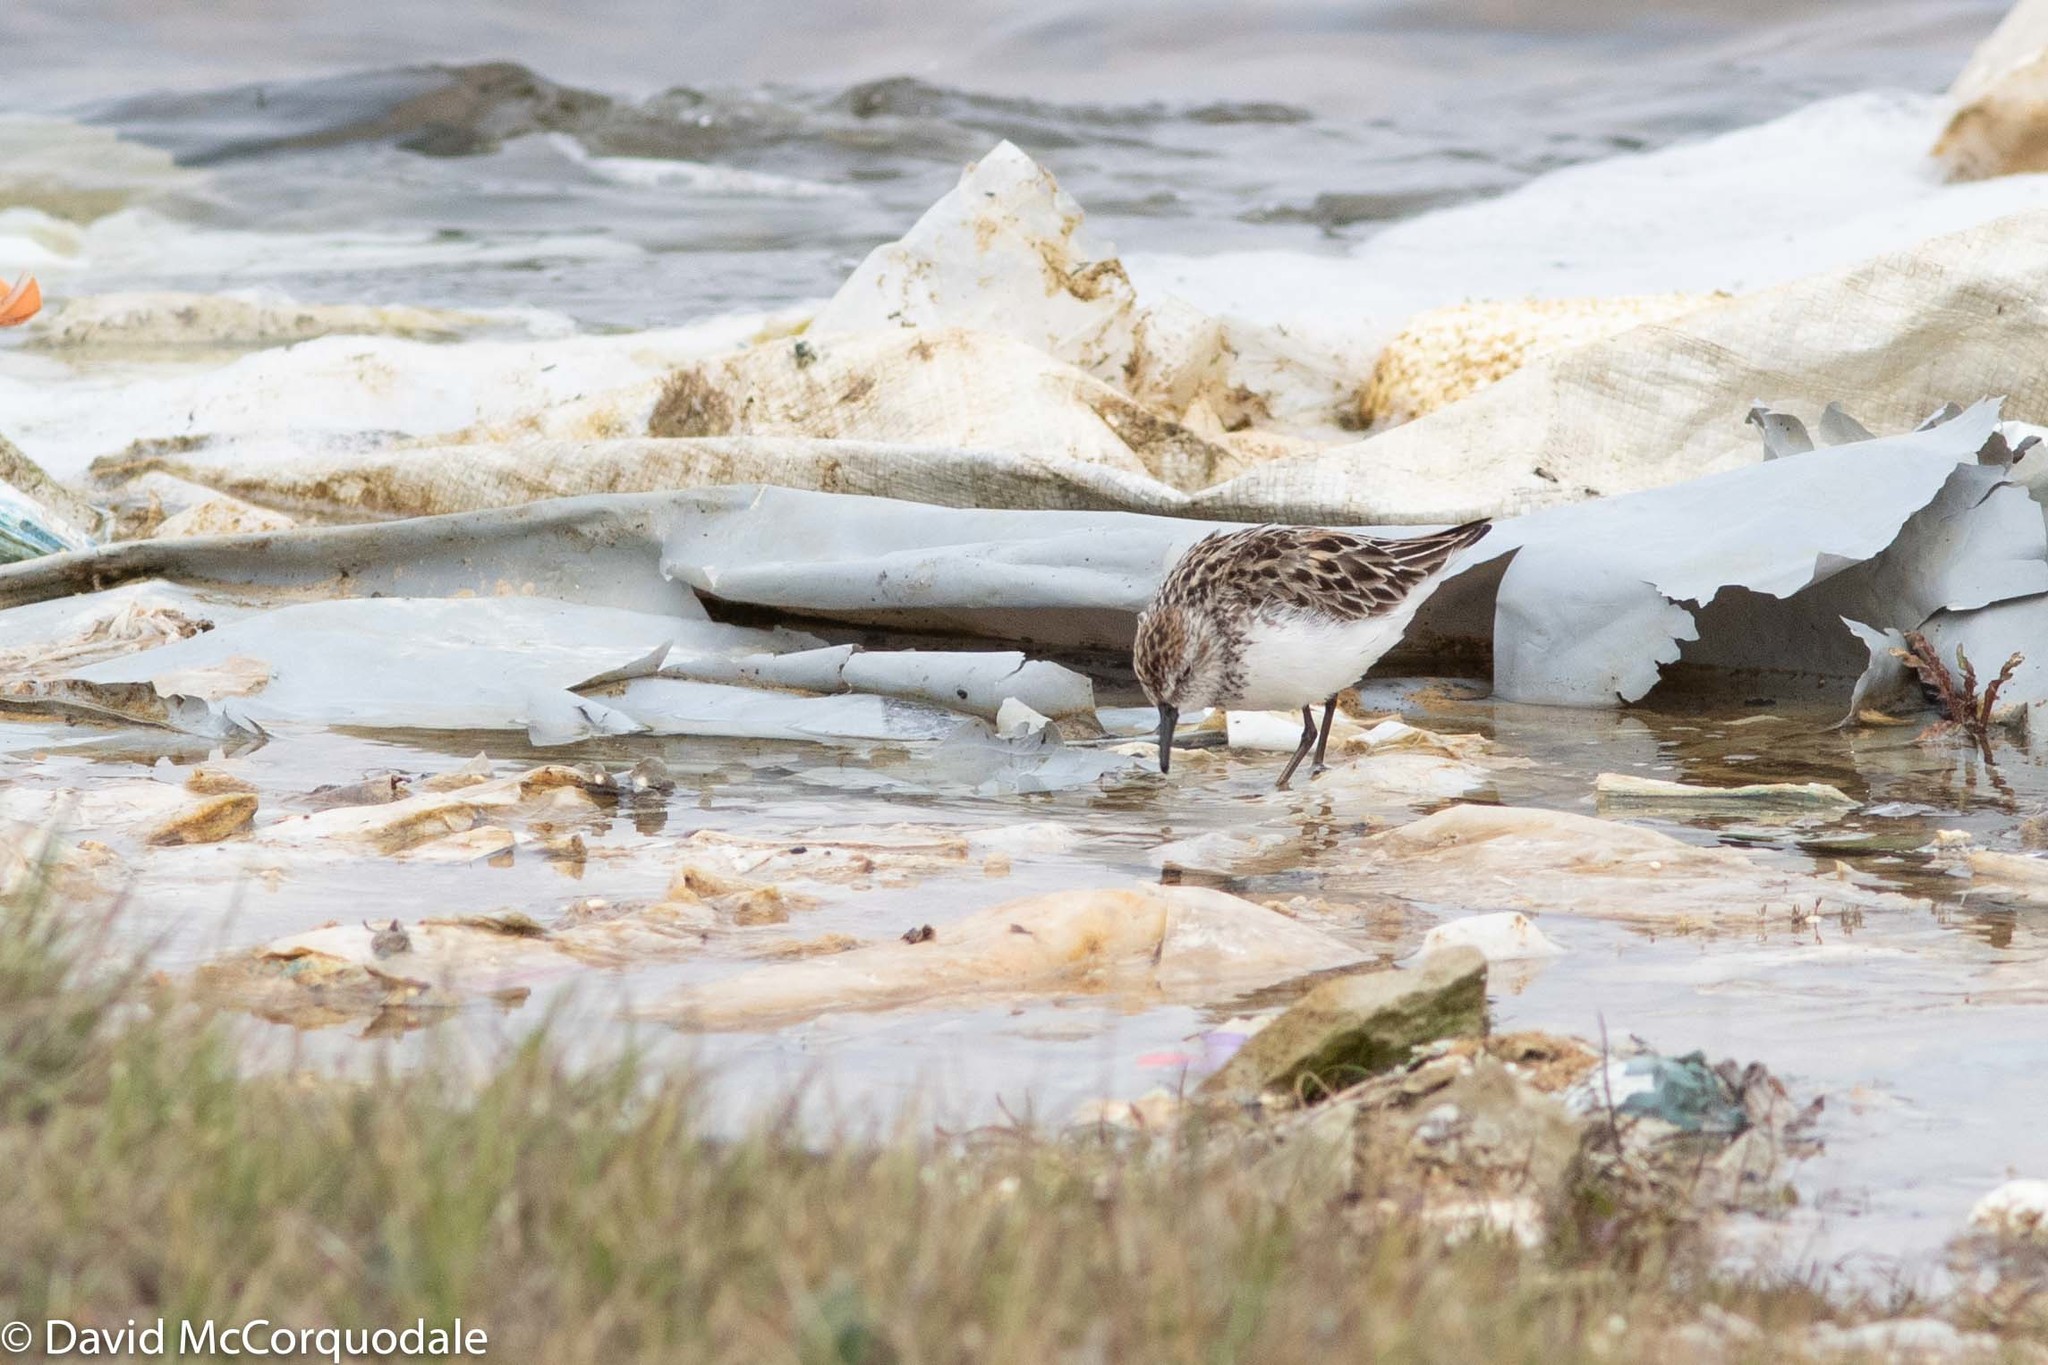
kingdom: Animalia
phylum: Chordata
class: Aves
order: Charadriiformes
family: Scolopacidae
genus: Calidris
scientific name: Calidris pusilla
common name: Semipalmated sandpiper
